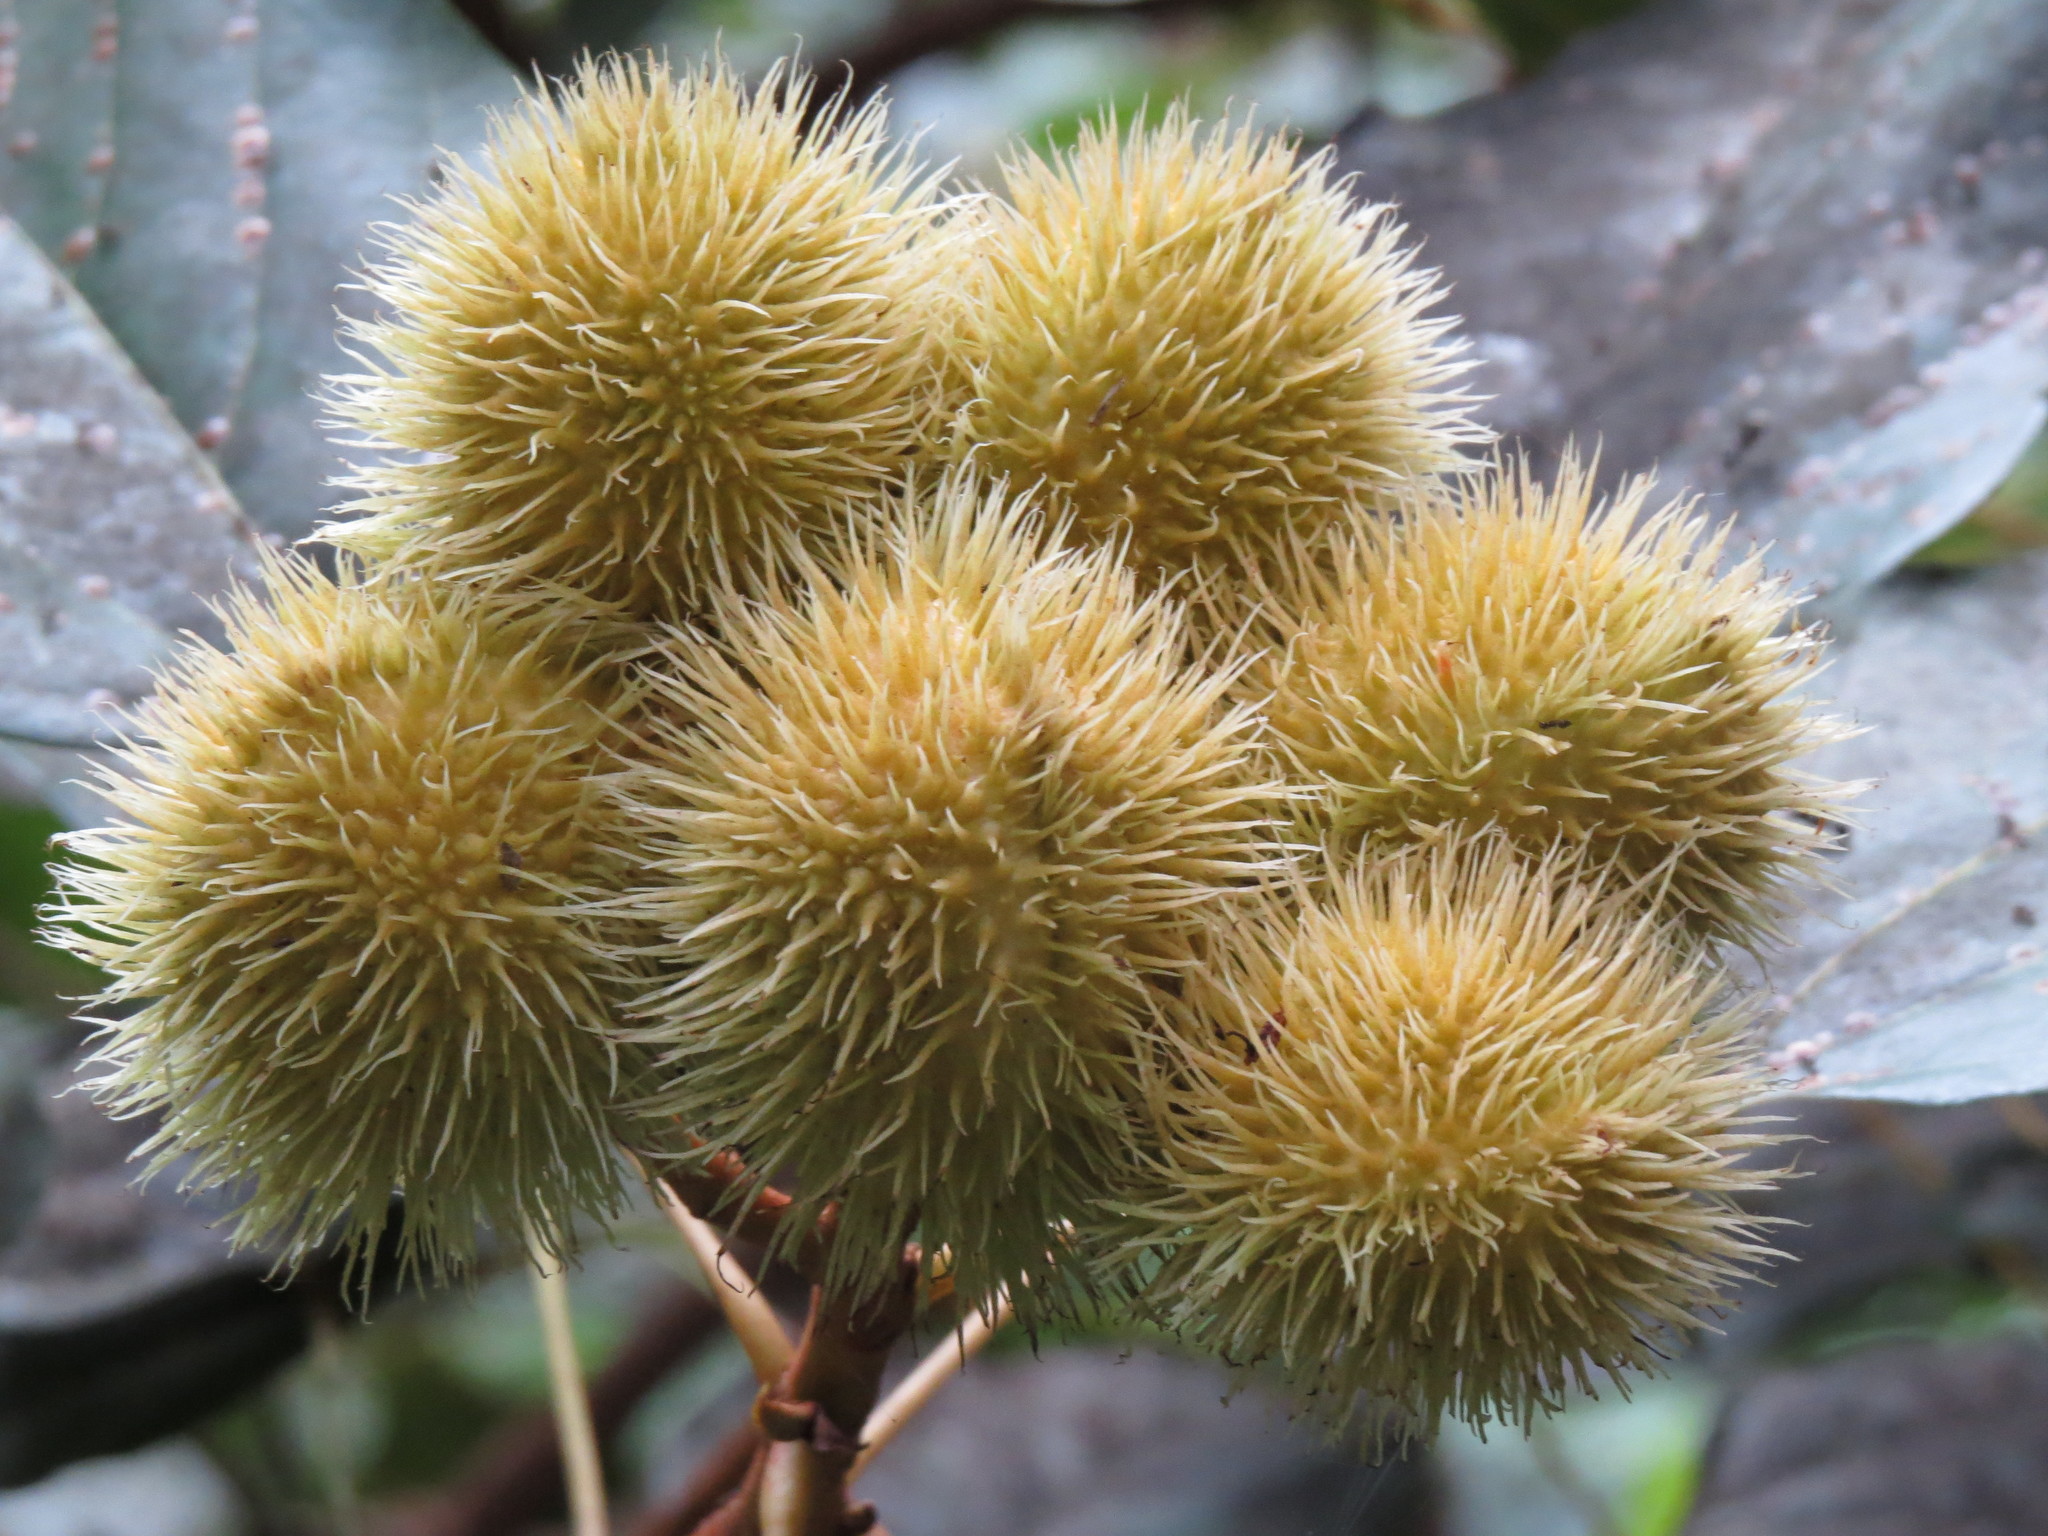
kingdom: Plantae
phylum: Tracheophyta
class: Magnoliopsida
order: Malvales
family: Bixaceae
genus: Bixa
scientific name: Bixa orellana
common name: Lipsticktree
